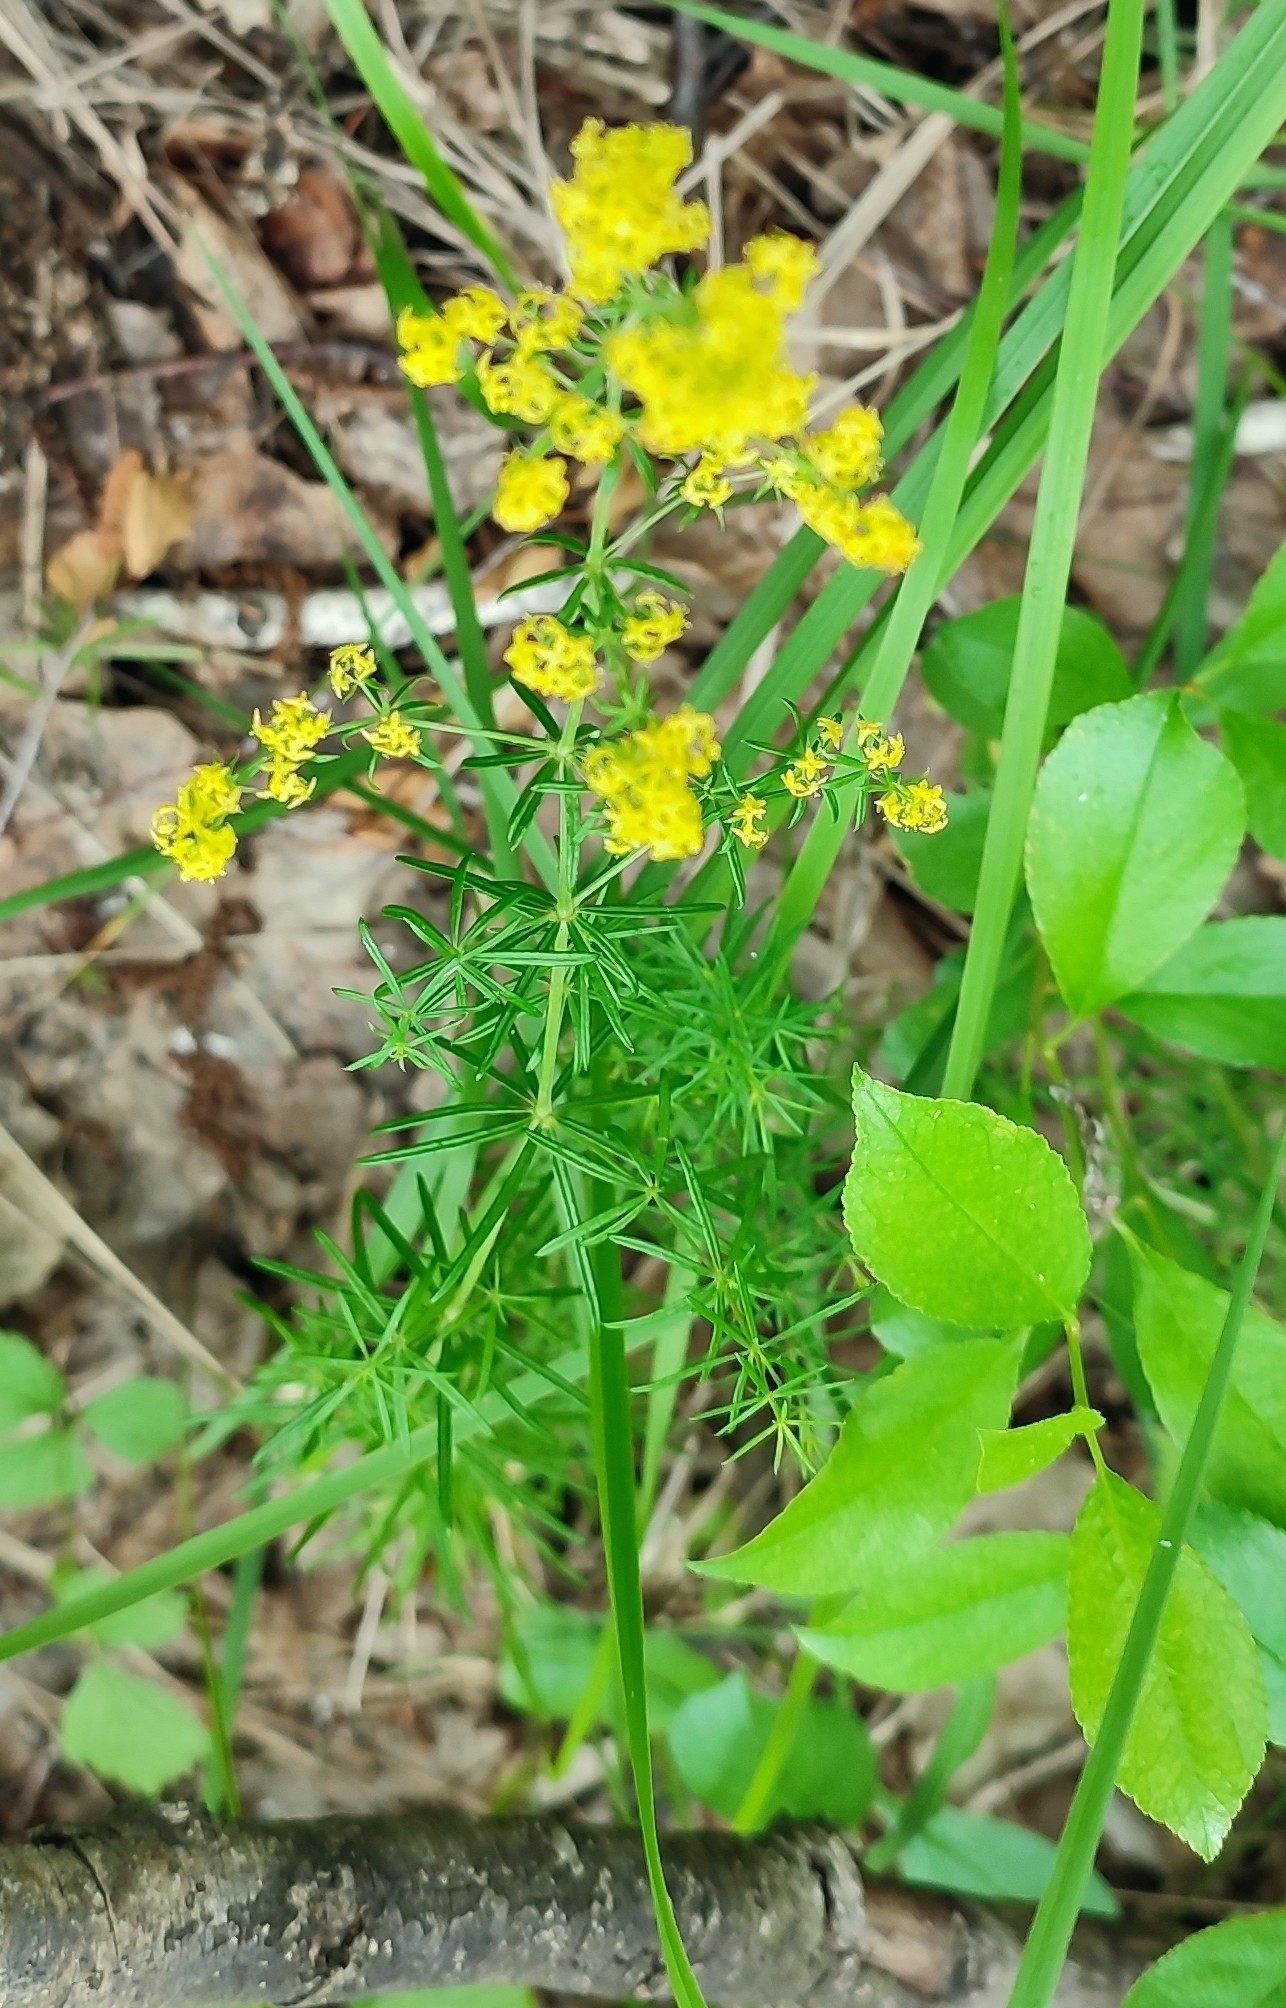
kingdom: Plantae
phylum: Tracheophyta
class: Magnoliopsida
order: Gentianales
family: Rubiaceae
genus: Galium
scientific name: Galium verum
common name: Lady's bedstraw
